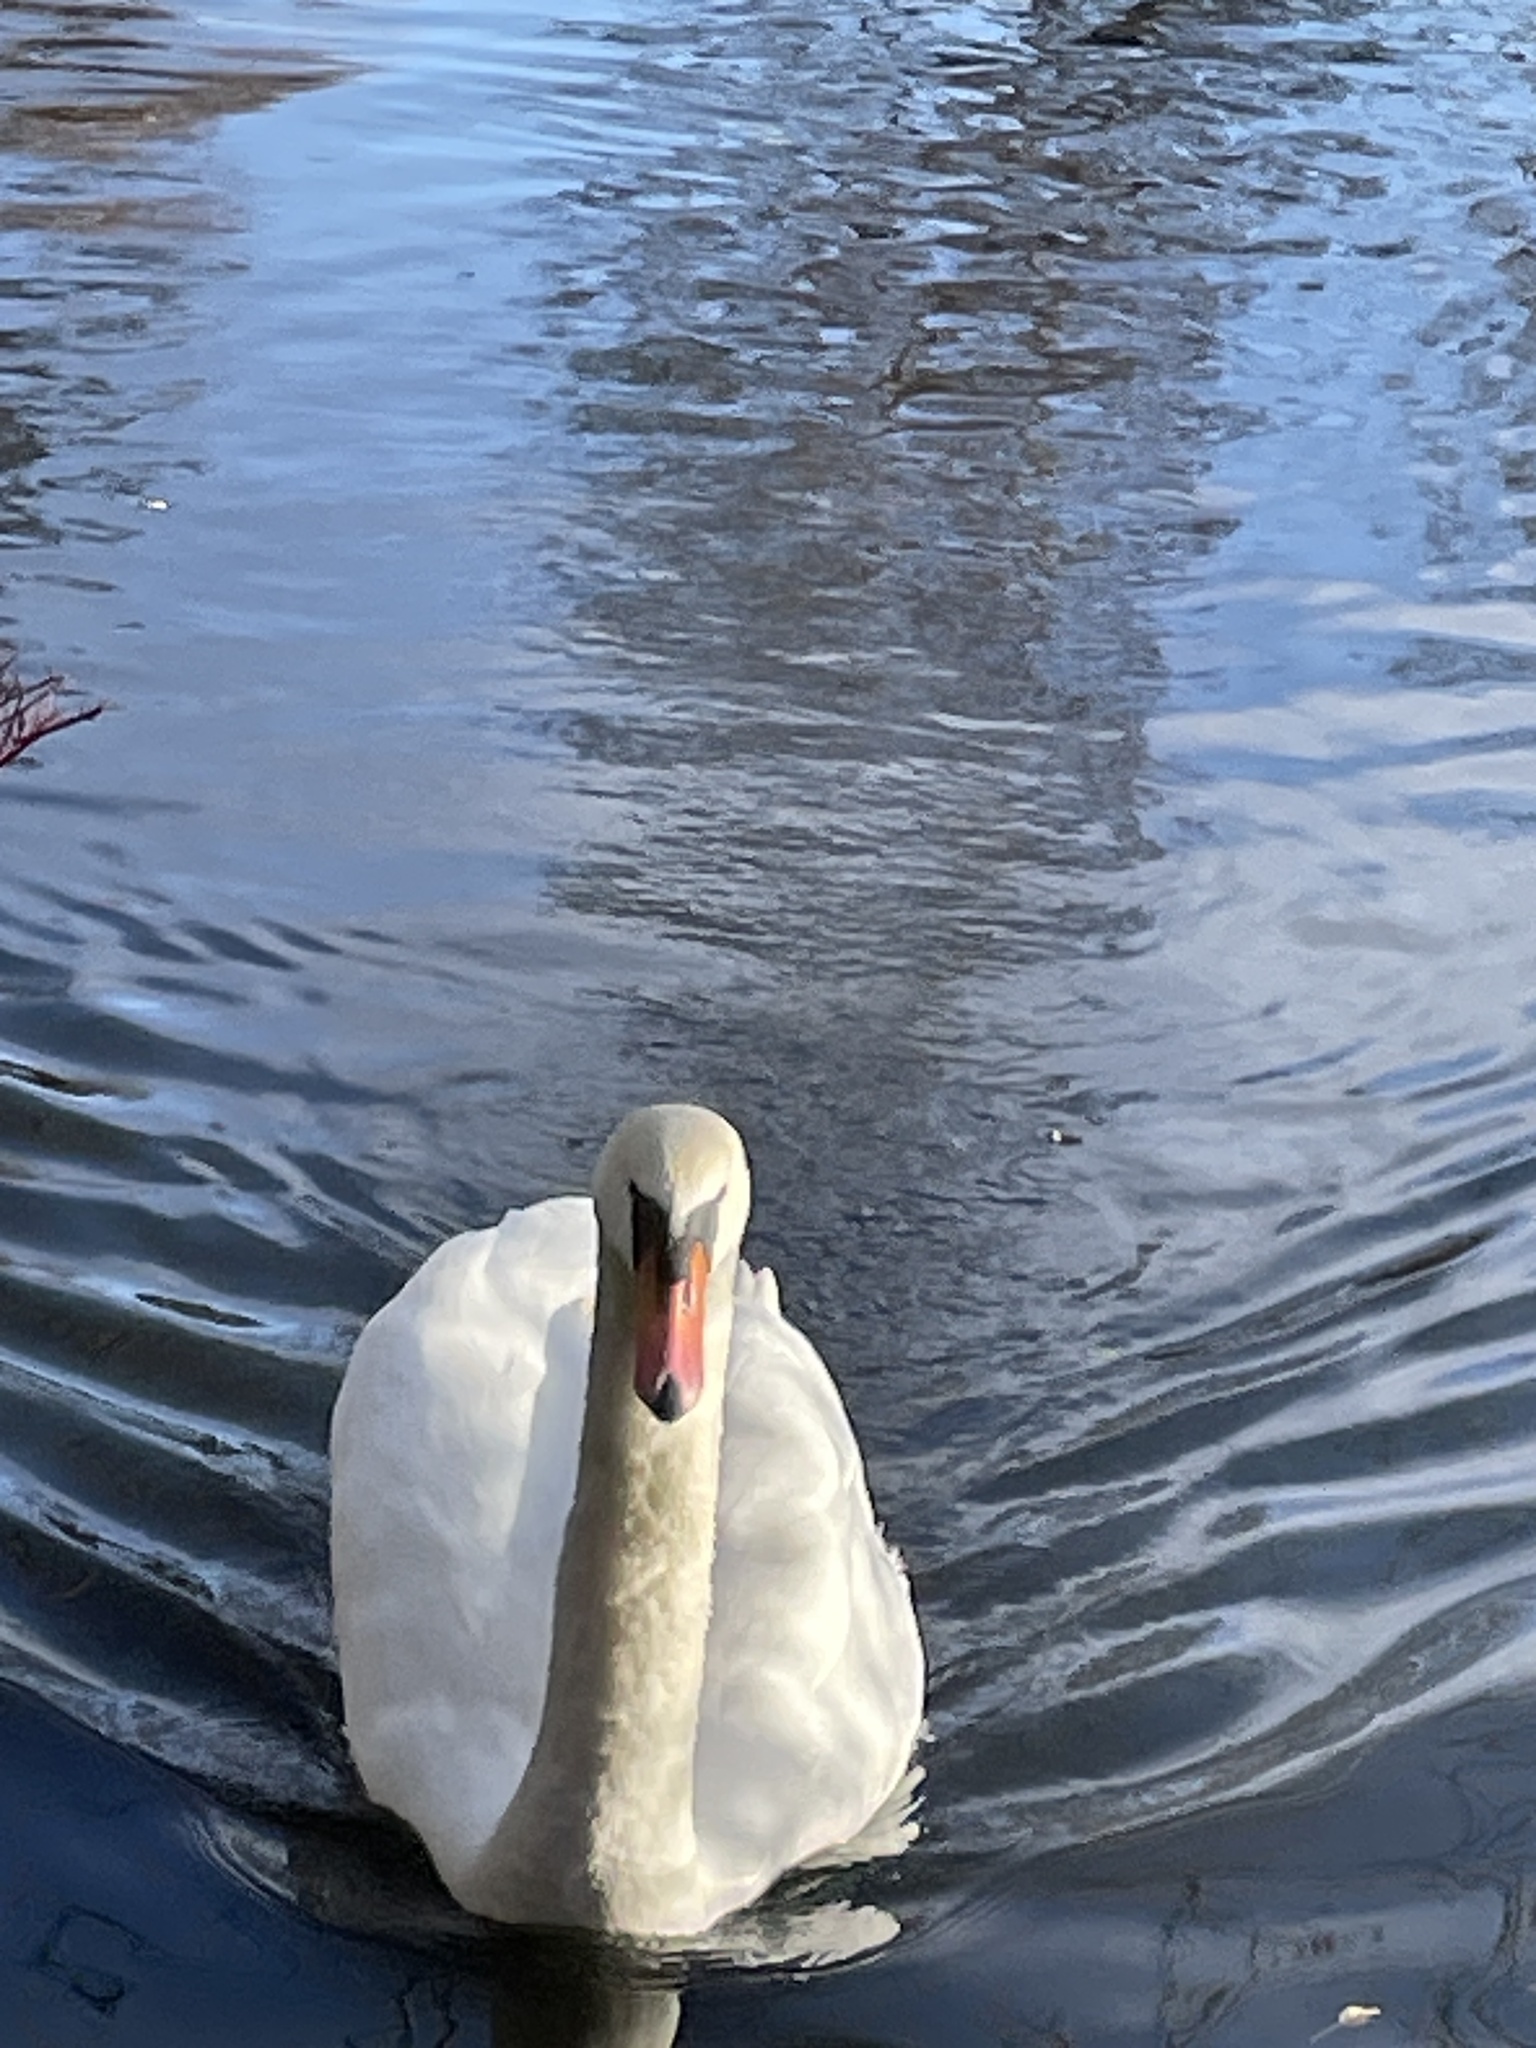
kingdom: Animalia
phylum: Chordata
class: Aves
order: Anseriformes
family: Anatidae
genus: Cygnus
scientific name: Cygnus olor
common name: Mute swan
